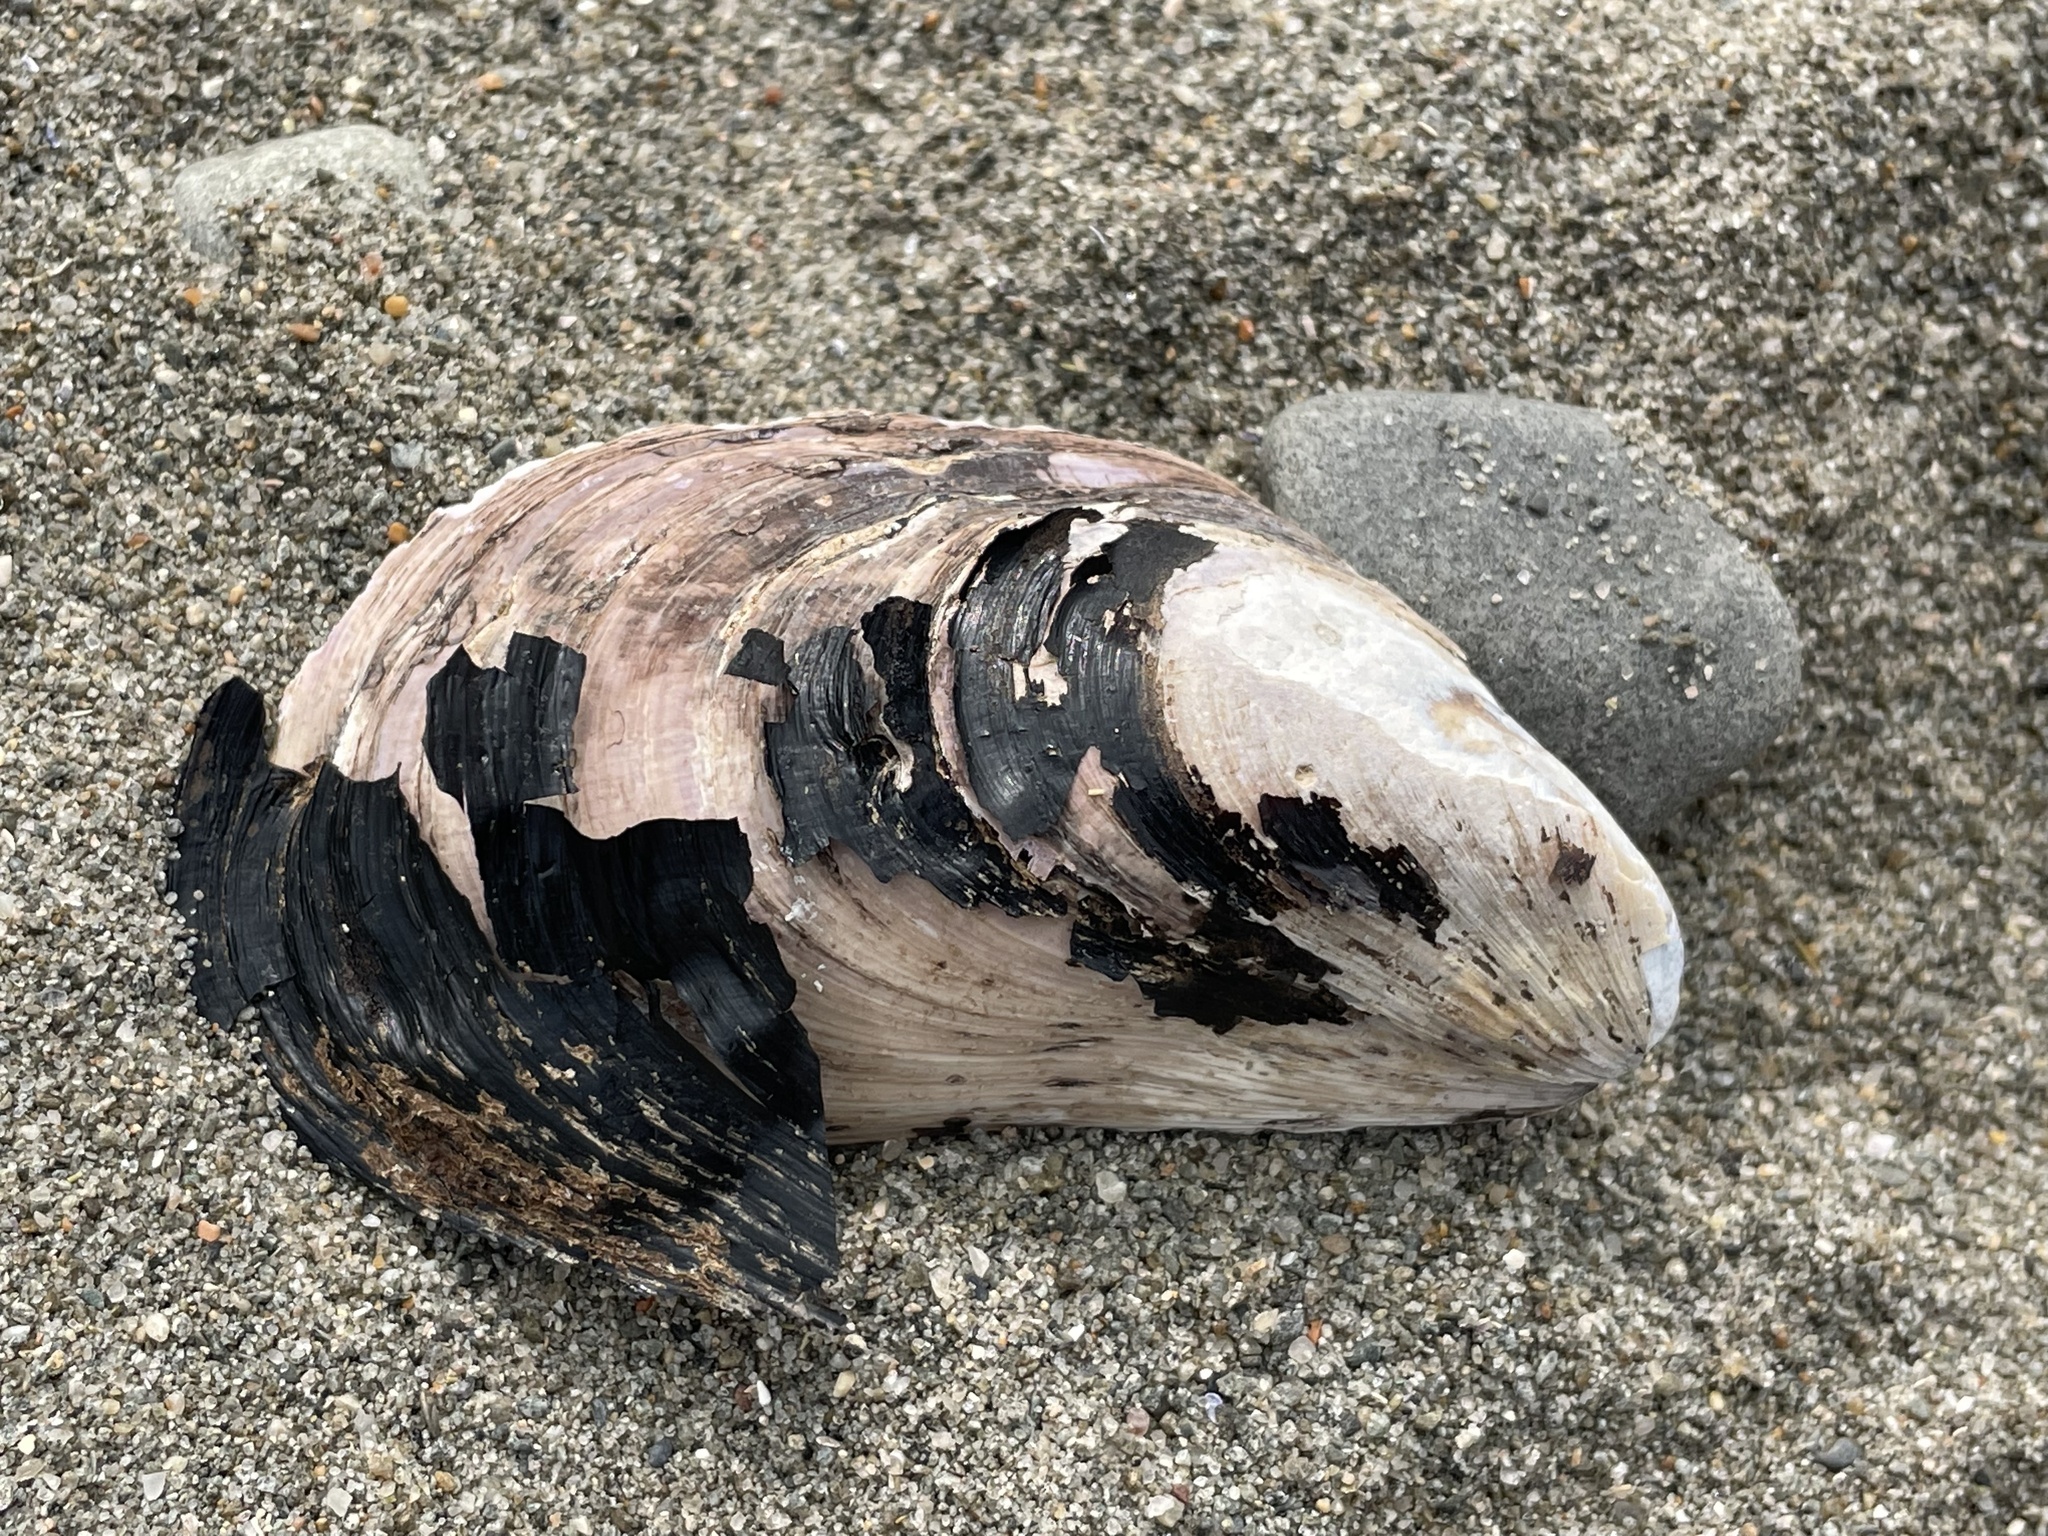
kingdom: Animalia
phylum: Mollusca
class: Bivalvia
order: Mytilida
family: Mytilidae
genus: Modiolus
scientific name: Modiolus modiolus
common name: Horse-mussel
